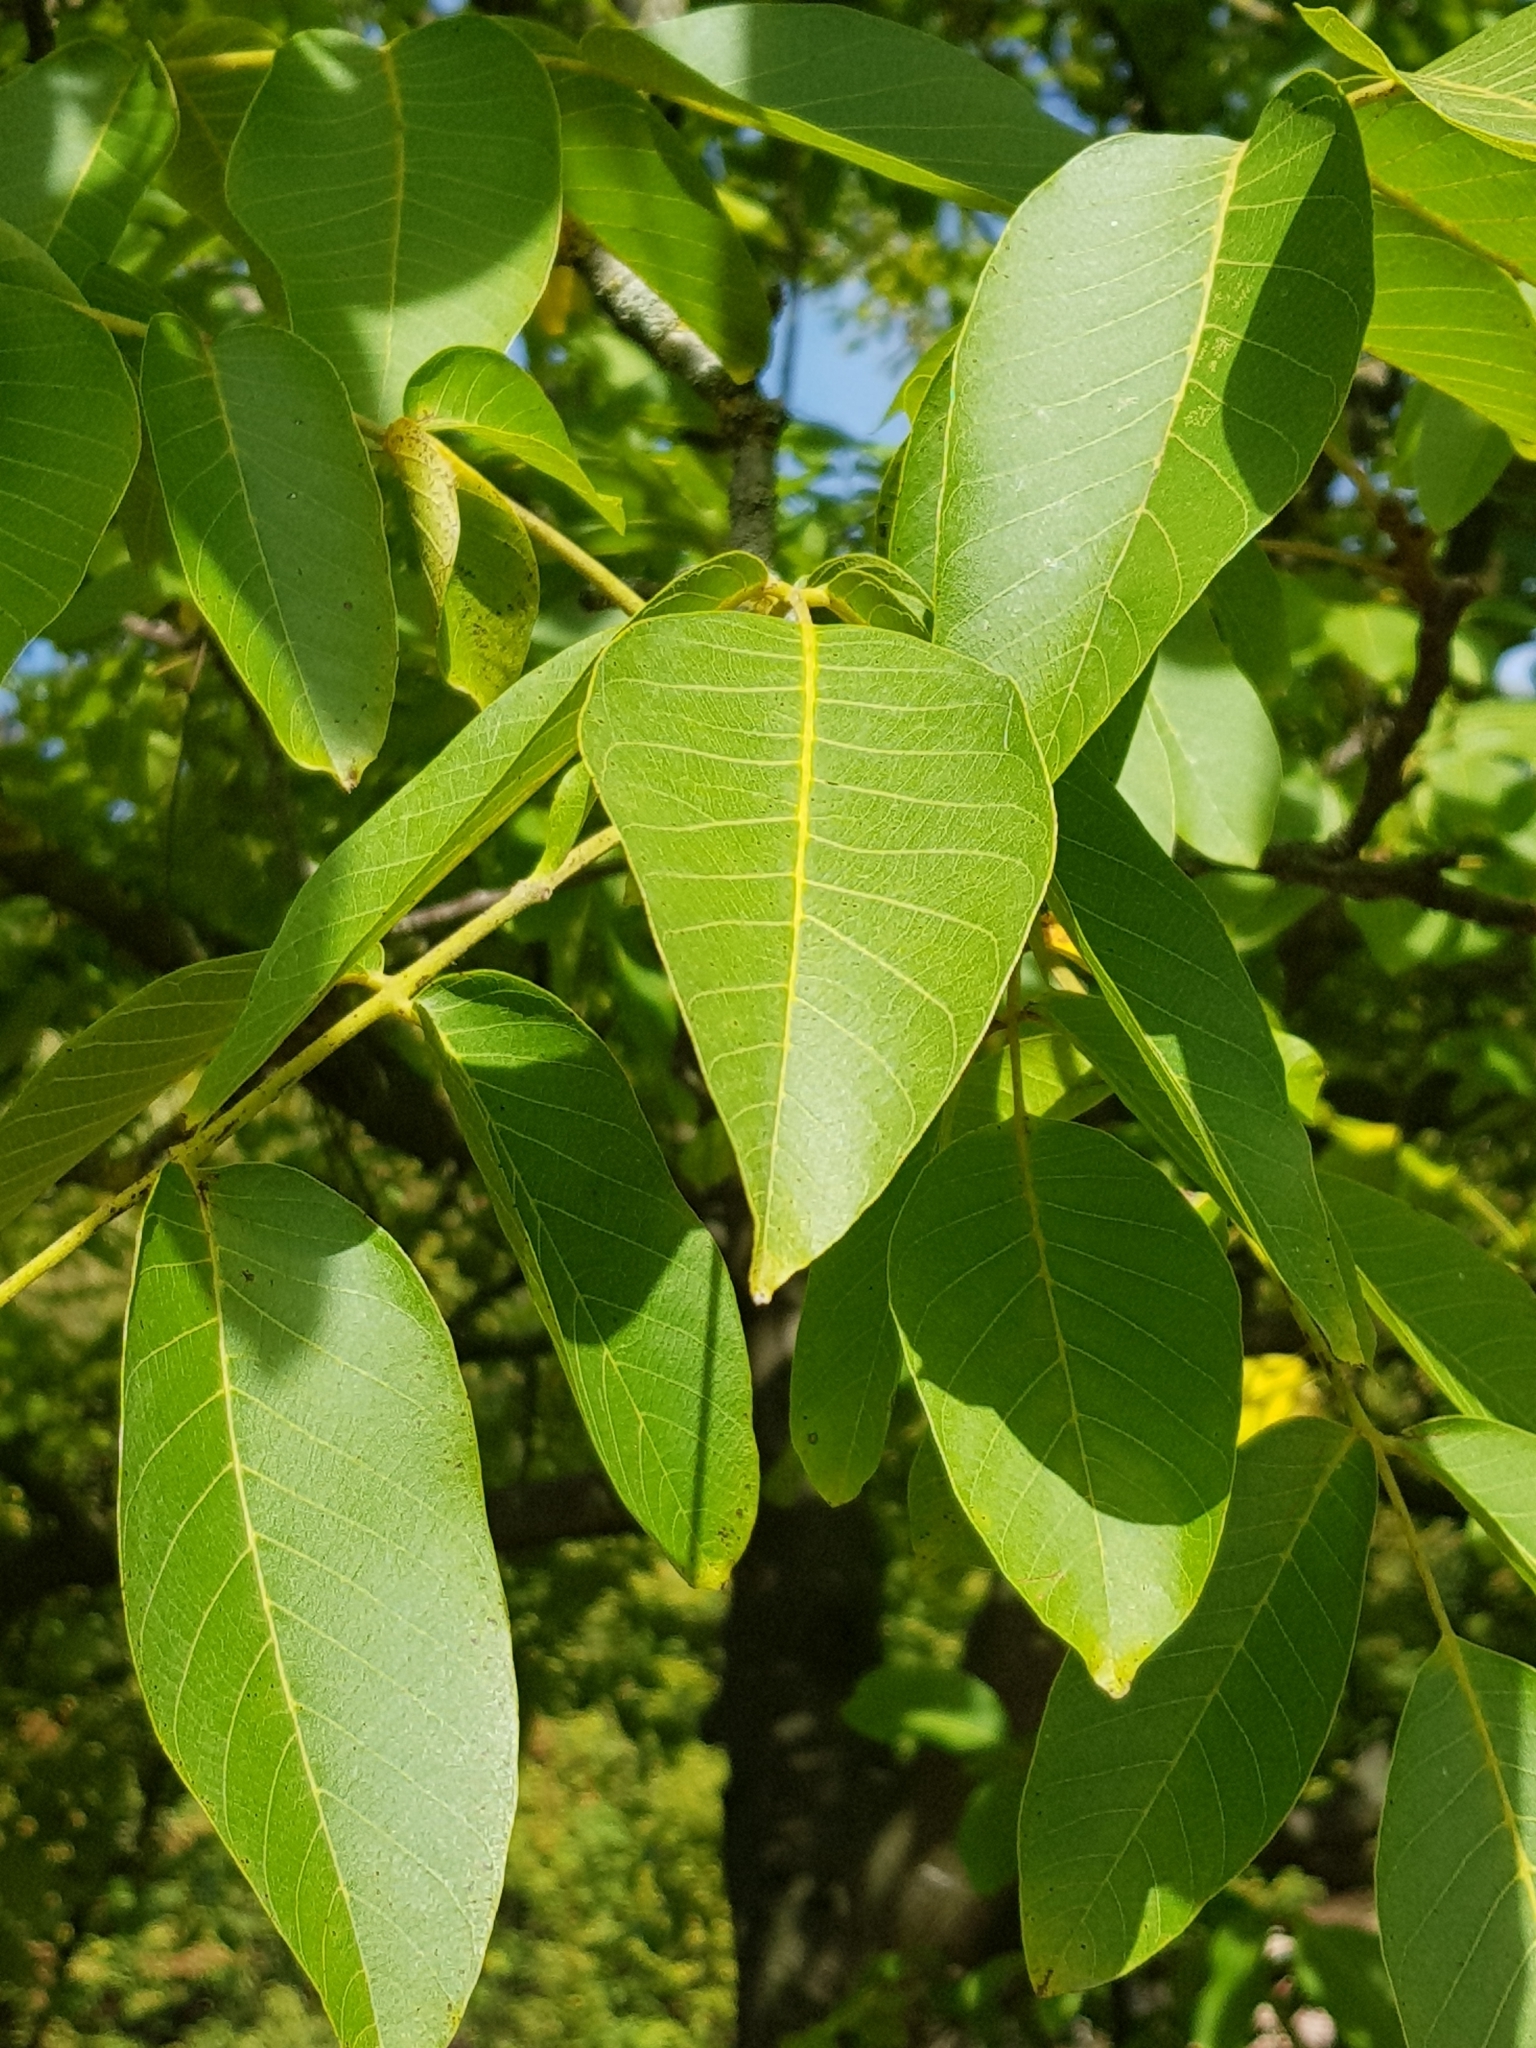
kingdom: Plantae
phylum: Tracheophyta
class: Magnoliopsida
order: Fagales
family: Juglandaceae
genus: Juglans
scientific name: Juglans regia
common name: Walnut
